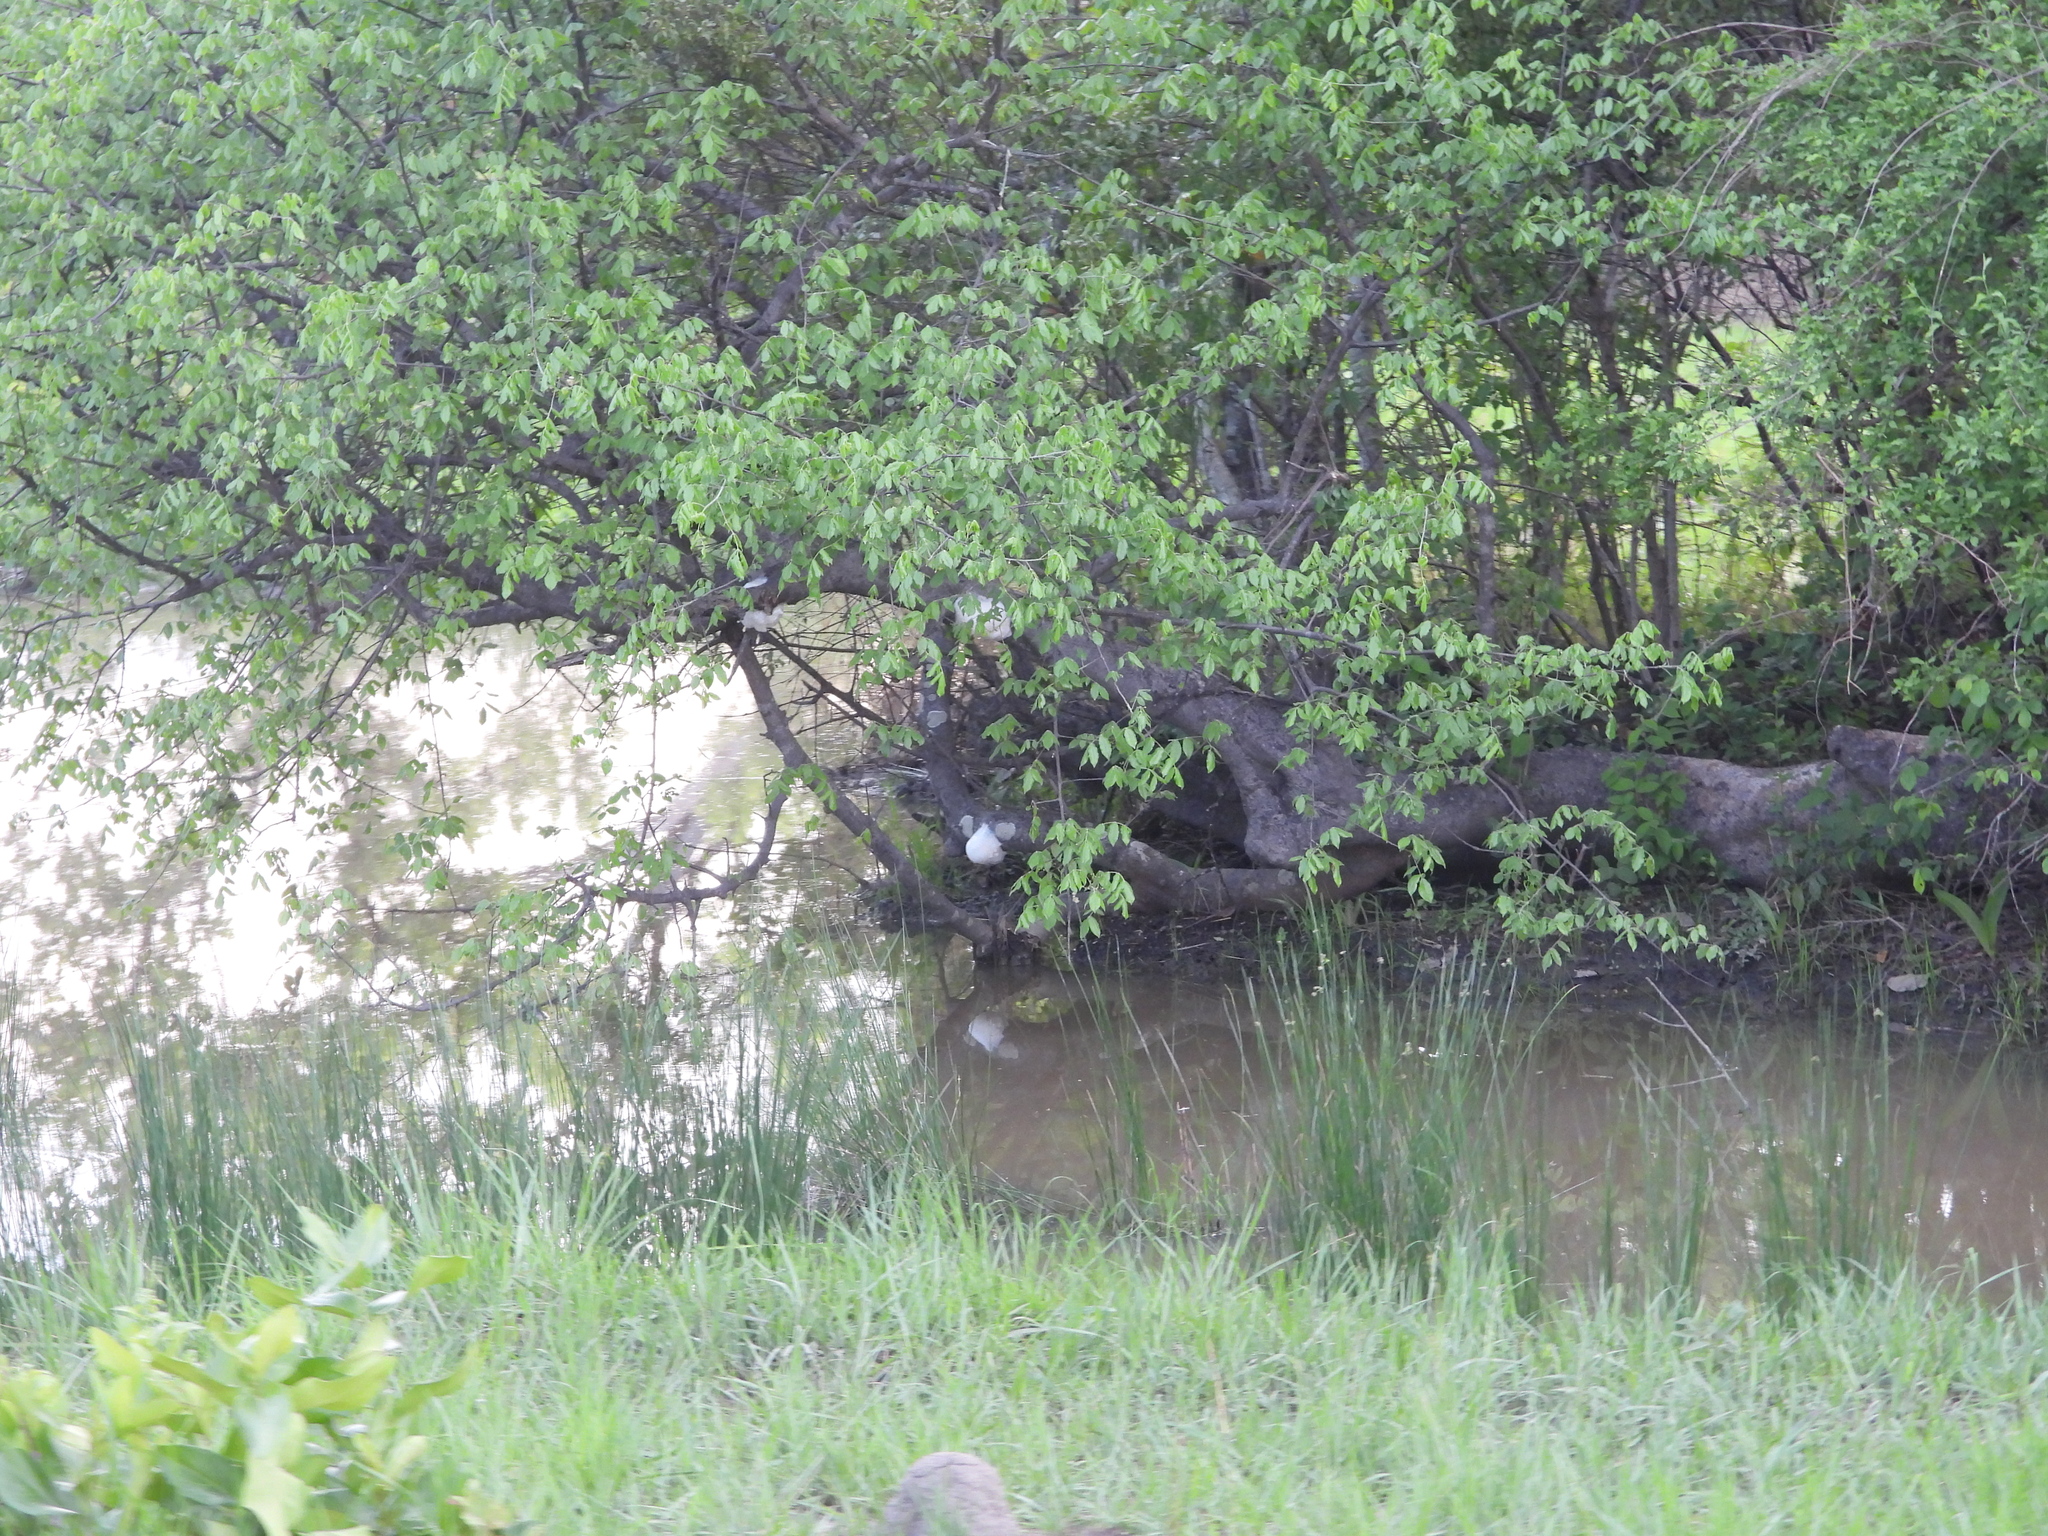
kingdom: Animalia
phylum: Chordata
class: Amphibia
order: Anura
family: Rhacophoridae
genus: Chiromantis
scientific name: Chiromantis xerampelina
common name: African gray treefrog
